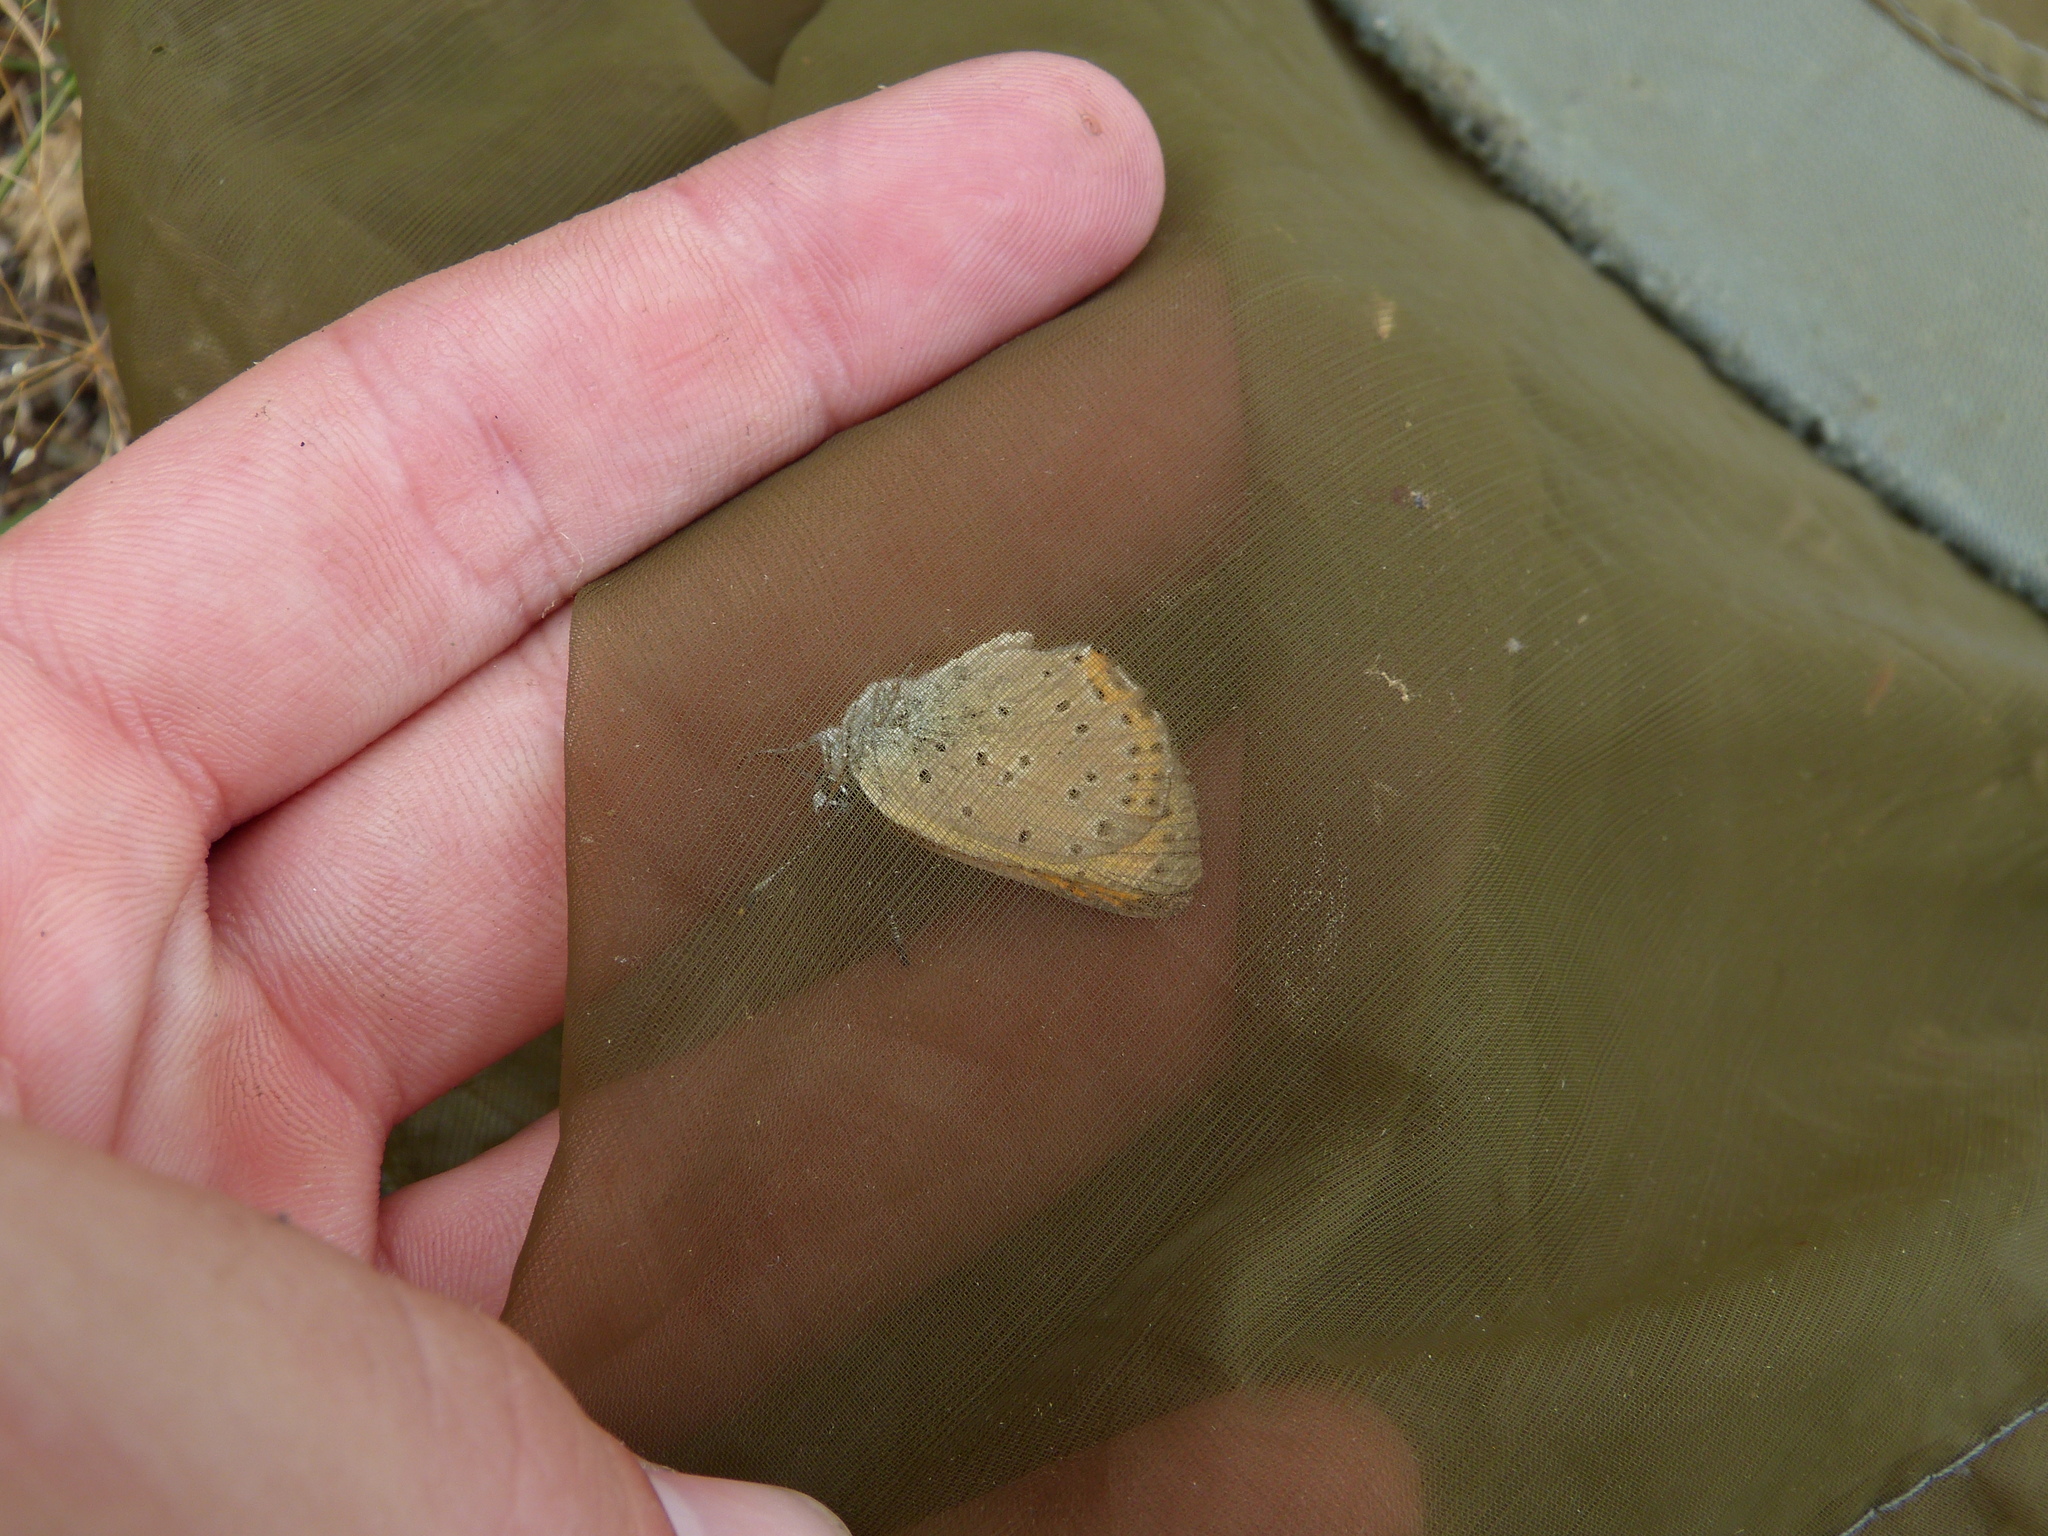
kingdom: Animalia
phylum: Arthropoda
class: Insecta
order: Lepidoptera
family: Lycaenidae
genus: Lycaena
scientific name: Lycaena alciphron
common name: Purple-shot copper
